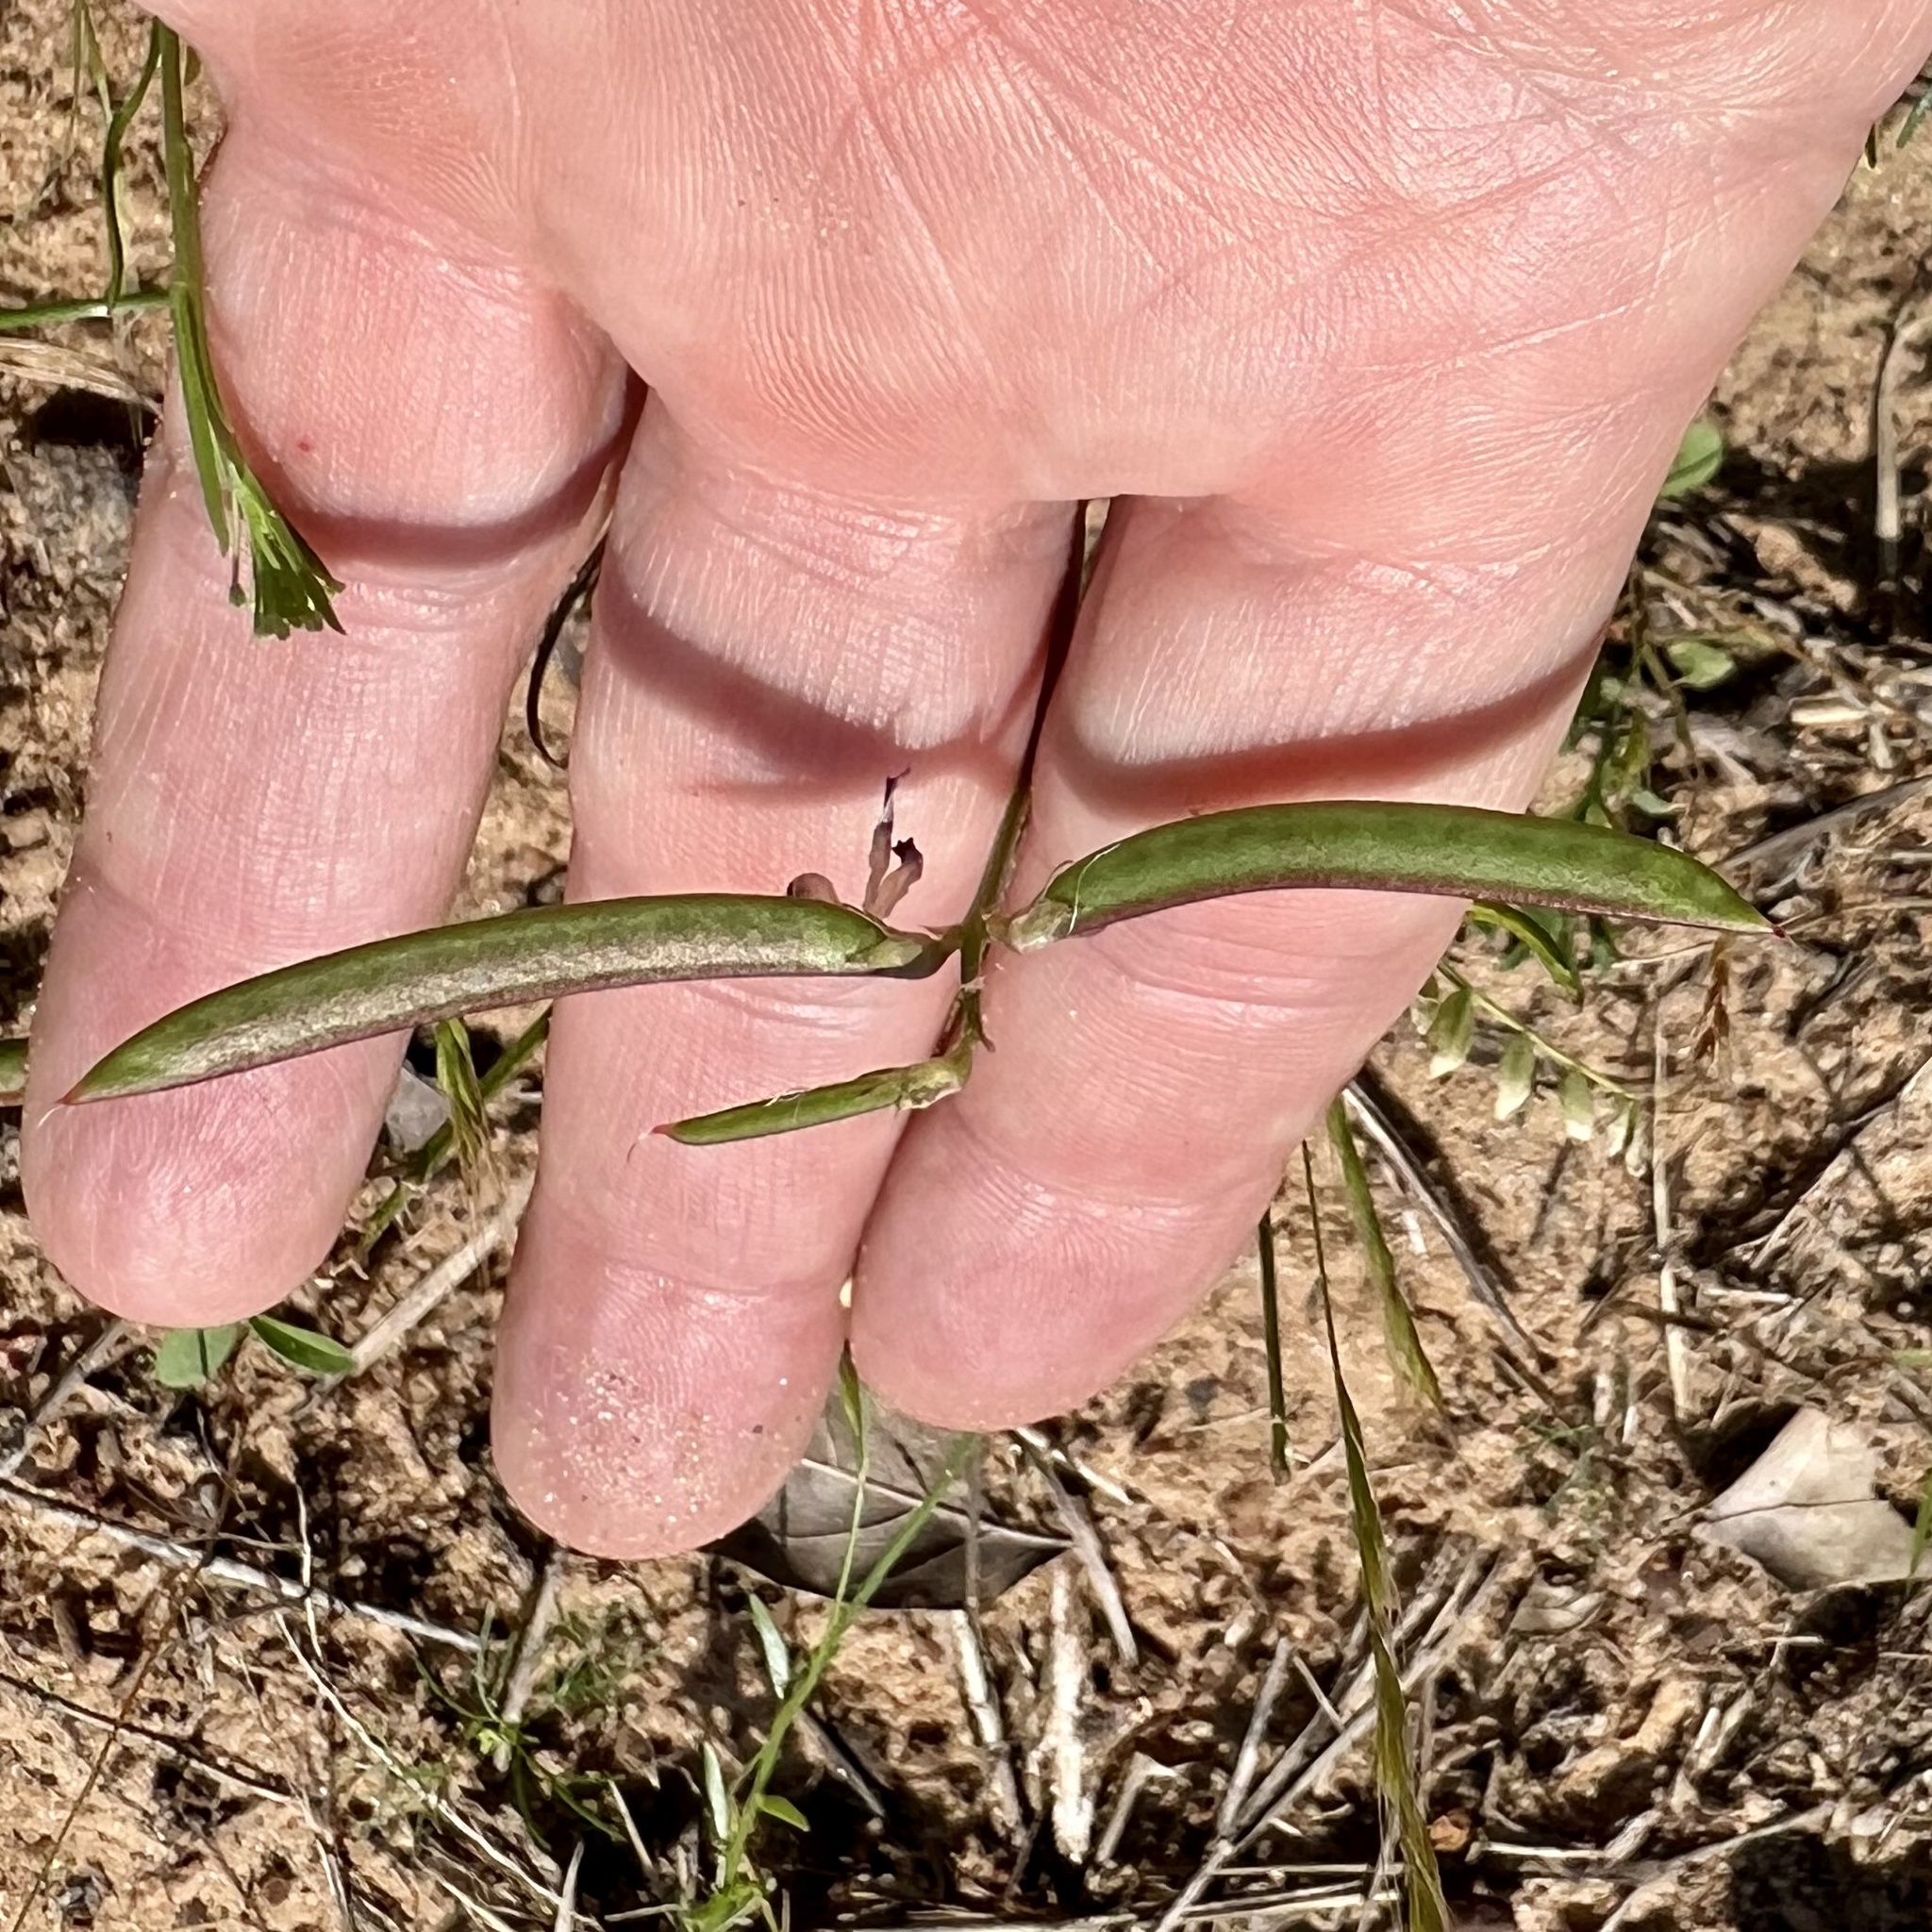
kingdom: Plantae
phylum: Tracheophyta
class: Magnoliopsida
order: Fabales
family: Fabaceae
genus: Astragalus
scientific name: Astragalus leptocarpus
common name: Bodkin milk-vetch
